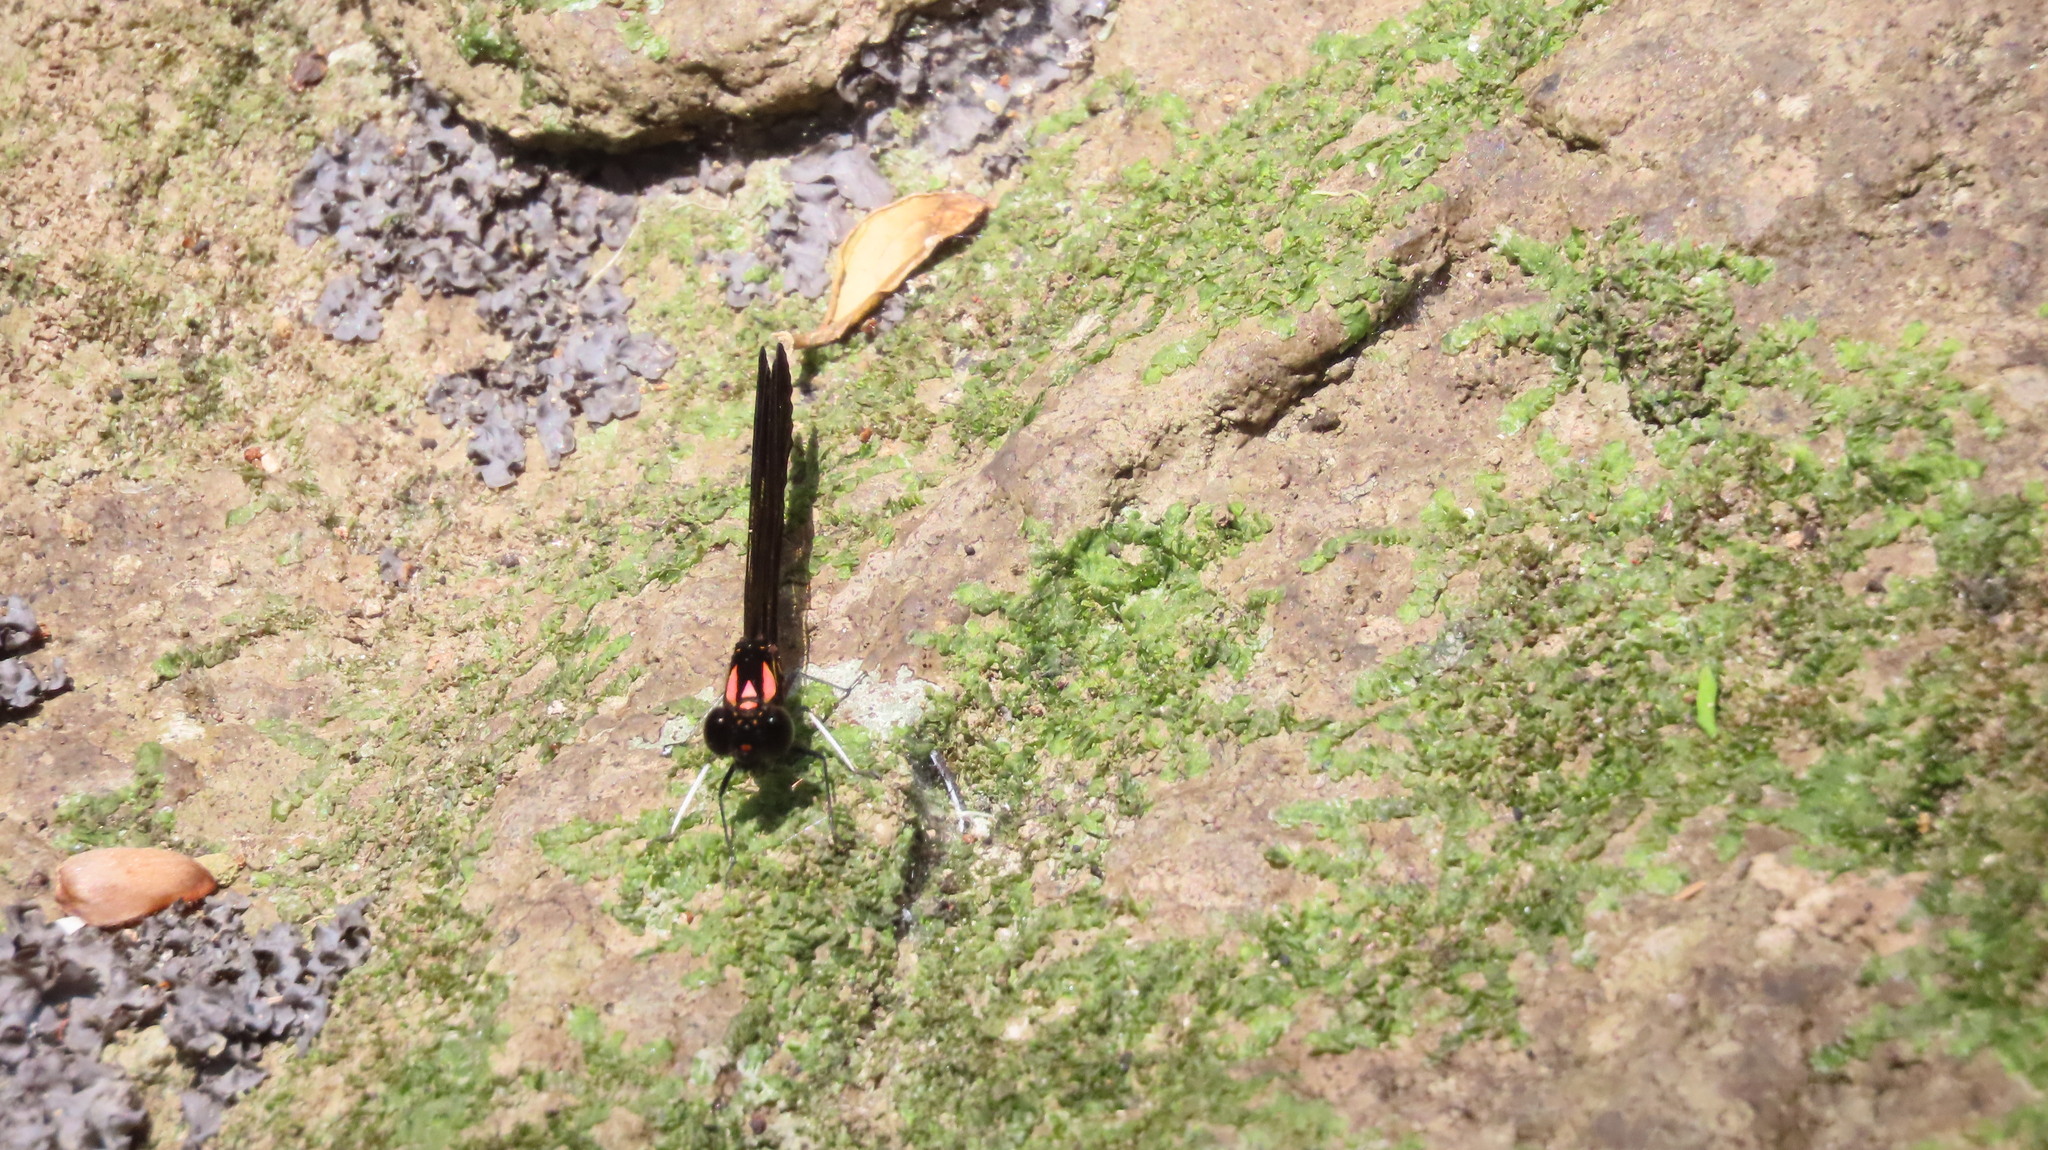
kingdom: Animalia
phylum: Arthropoda
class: Insecta
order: Odonata
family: Chlorocyphidae
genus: Heliocypha
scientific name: Heliocypha bisignata
